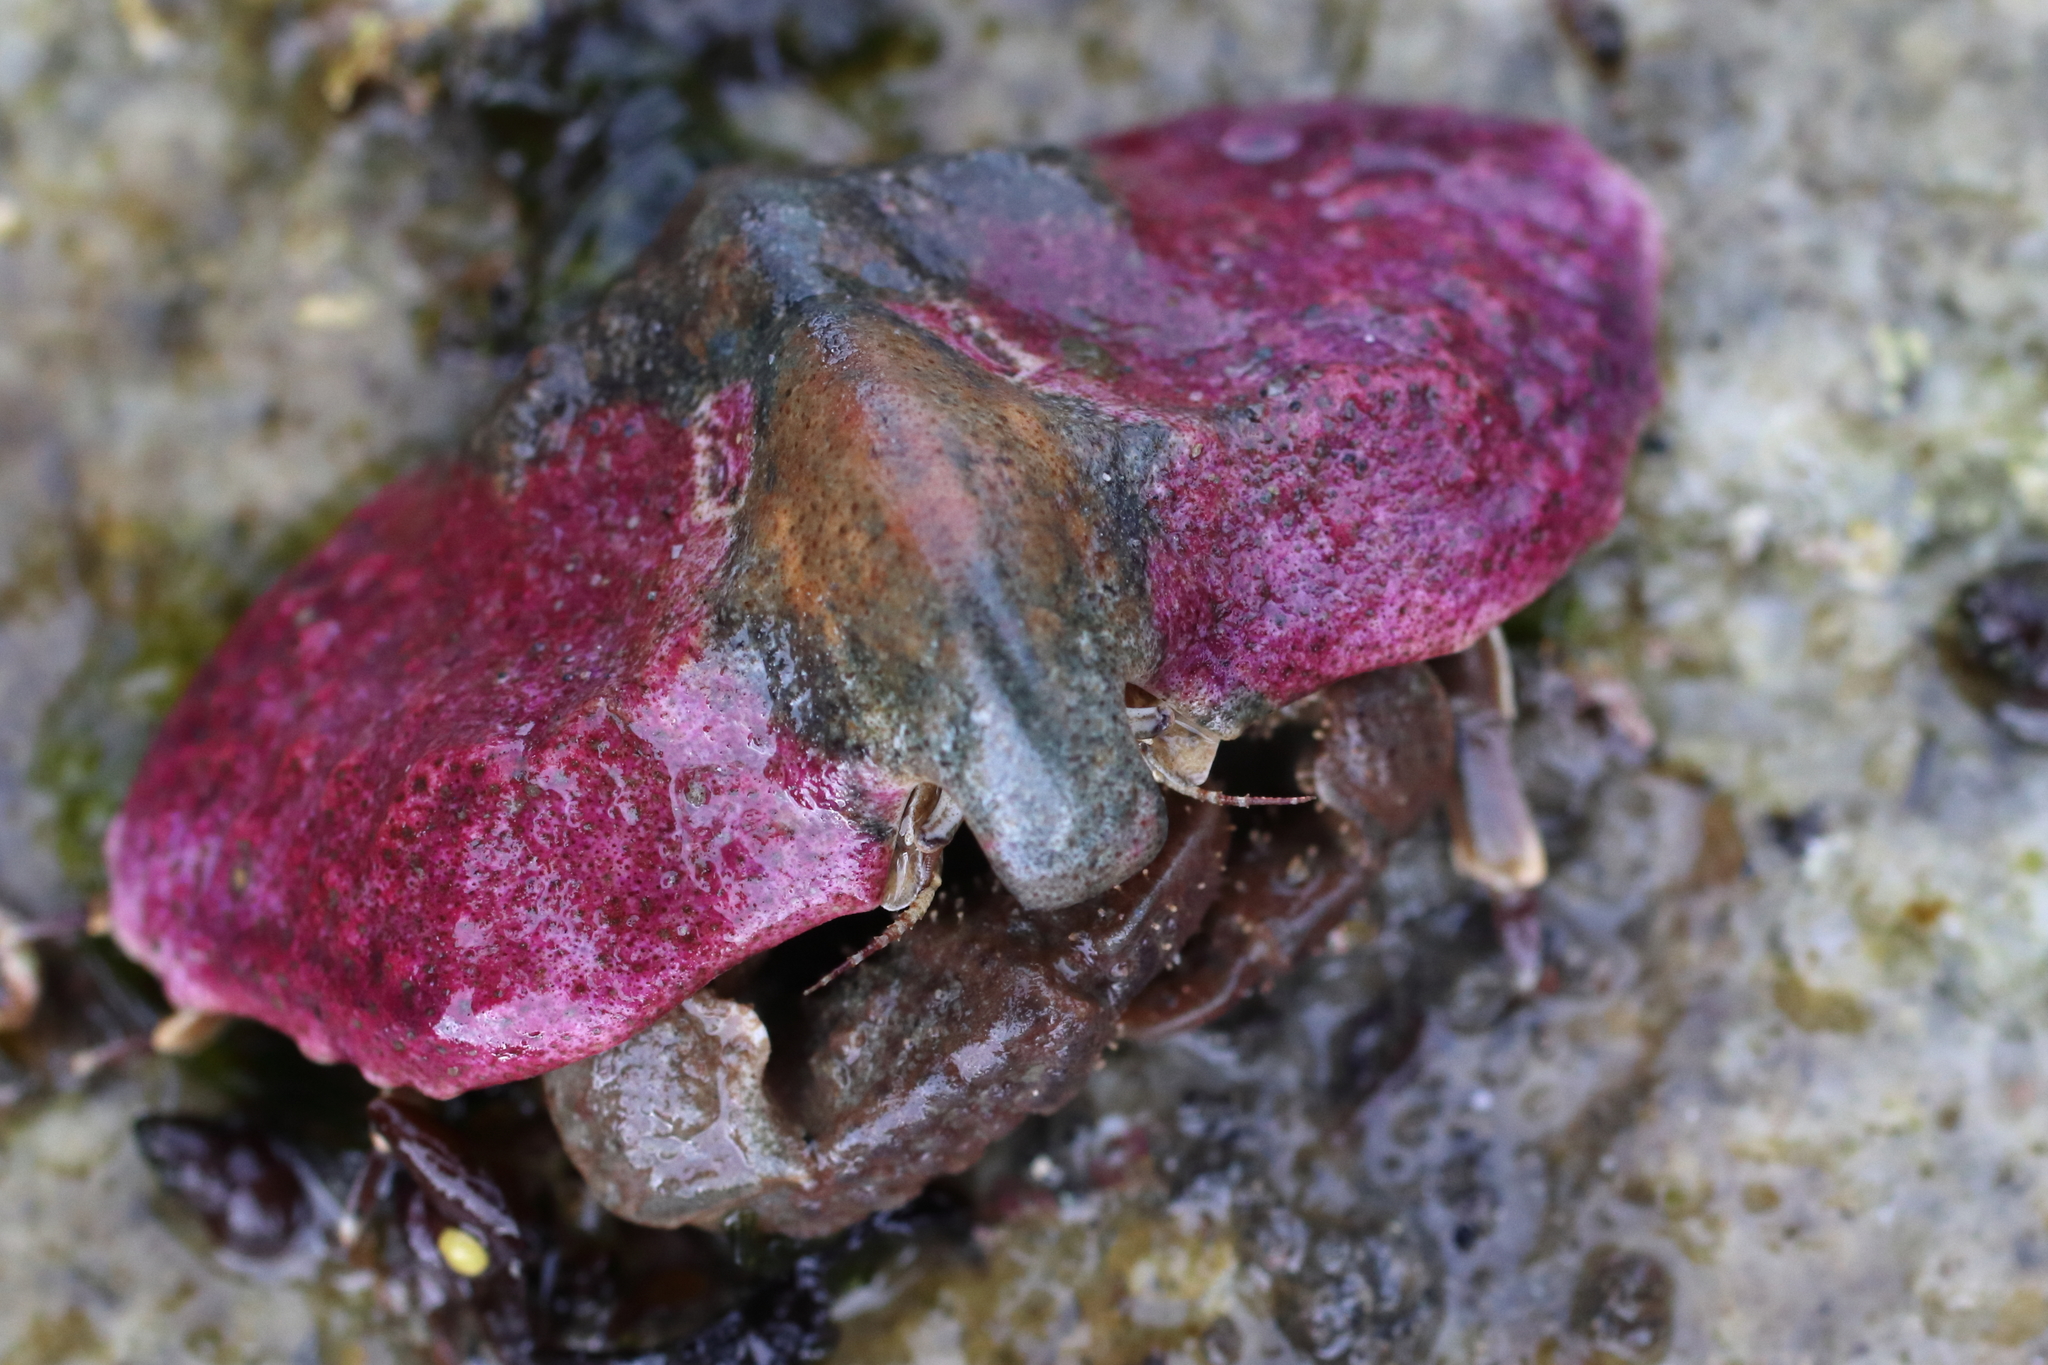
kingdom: Animalia
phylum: Arthropoda
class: Malacostraca
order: Decapoda
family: Lithodidae
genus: Cryptolithodes
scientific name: Cryptolithodes typicus
